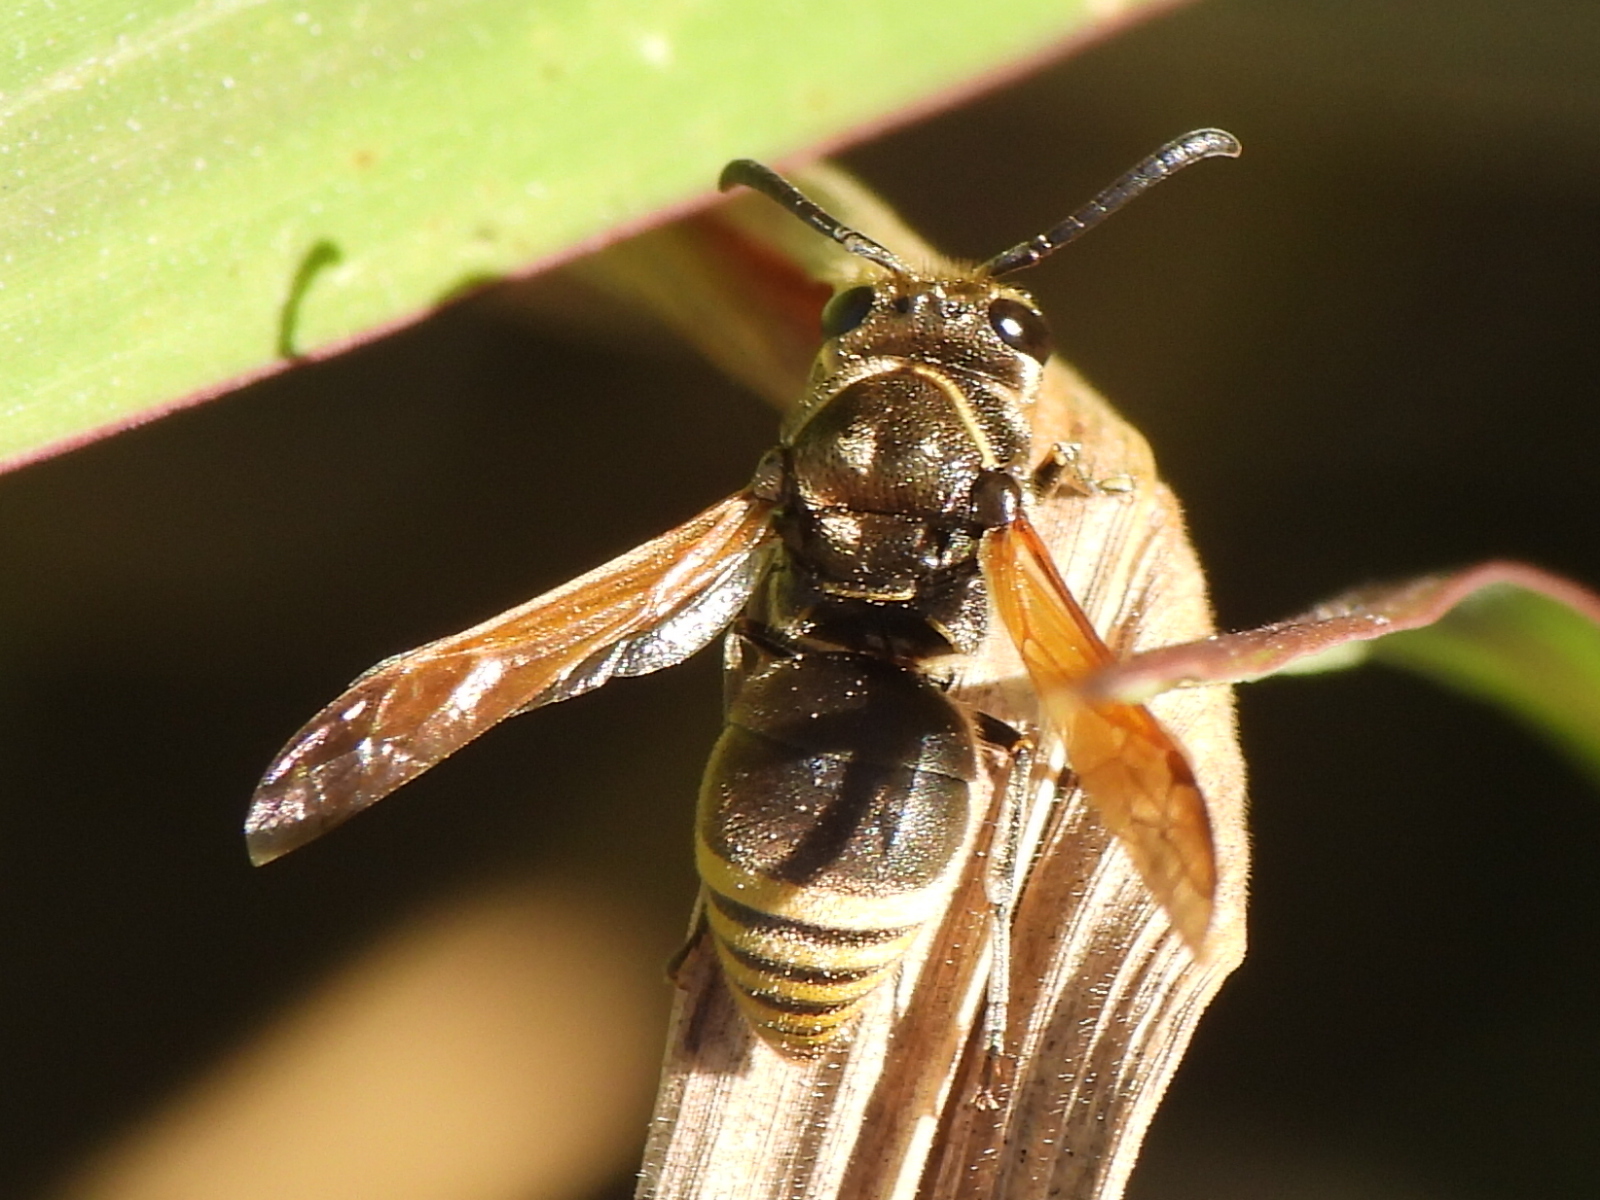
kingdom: Animalia
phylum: Arthropoda
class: Insecta
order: Hymenoptera
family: Eumenidae
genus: Pachodynerus
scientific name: Pachodynerus nasidens
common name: Key hole wasp
